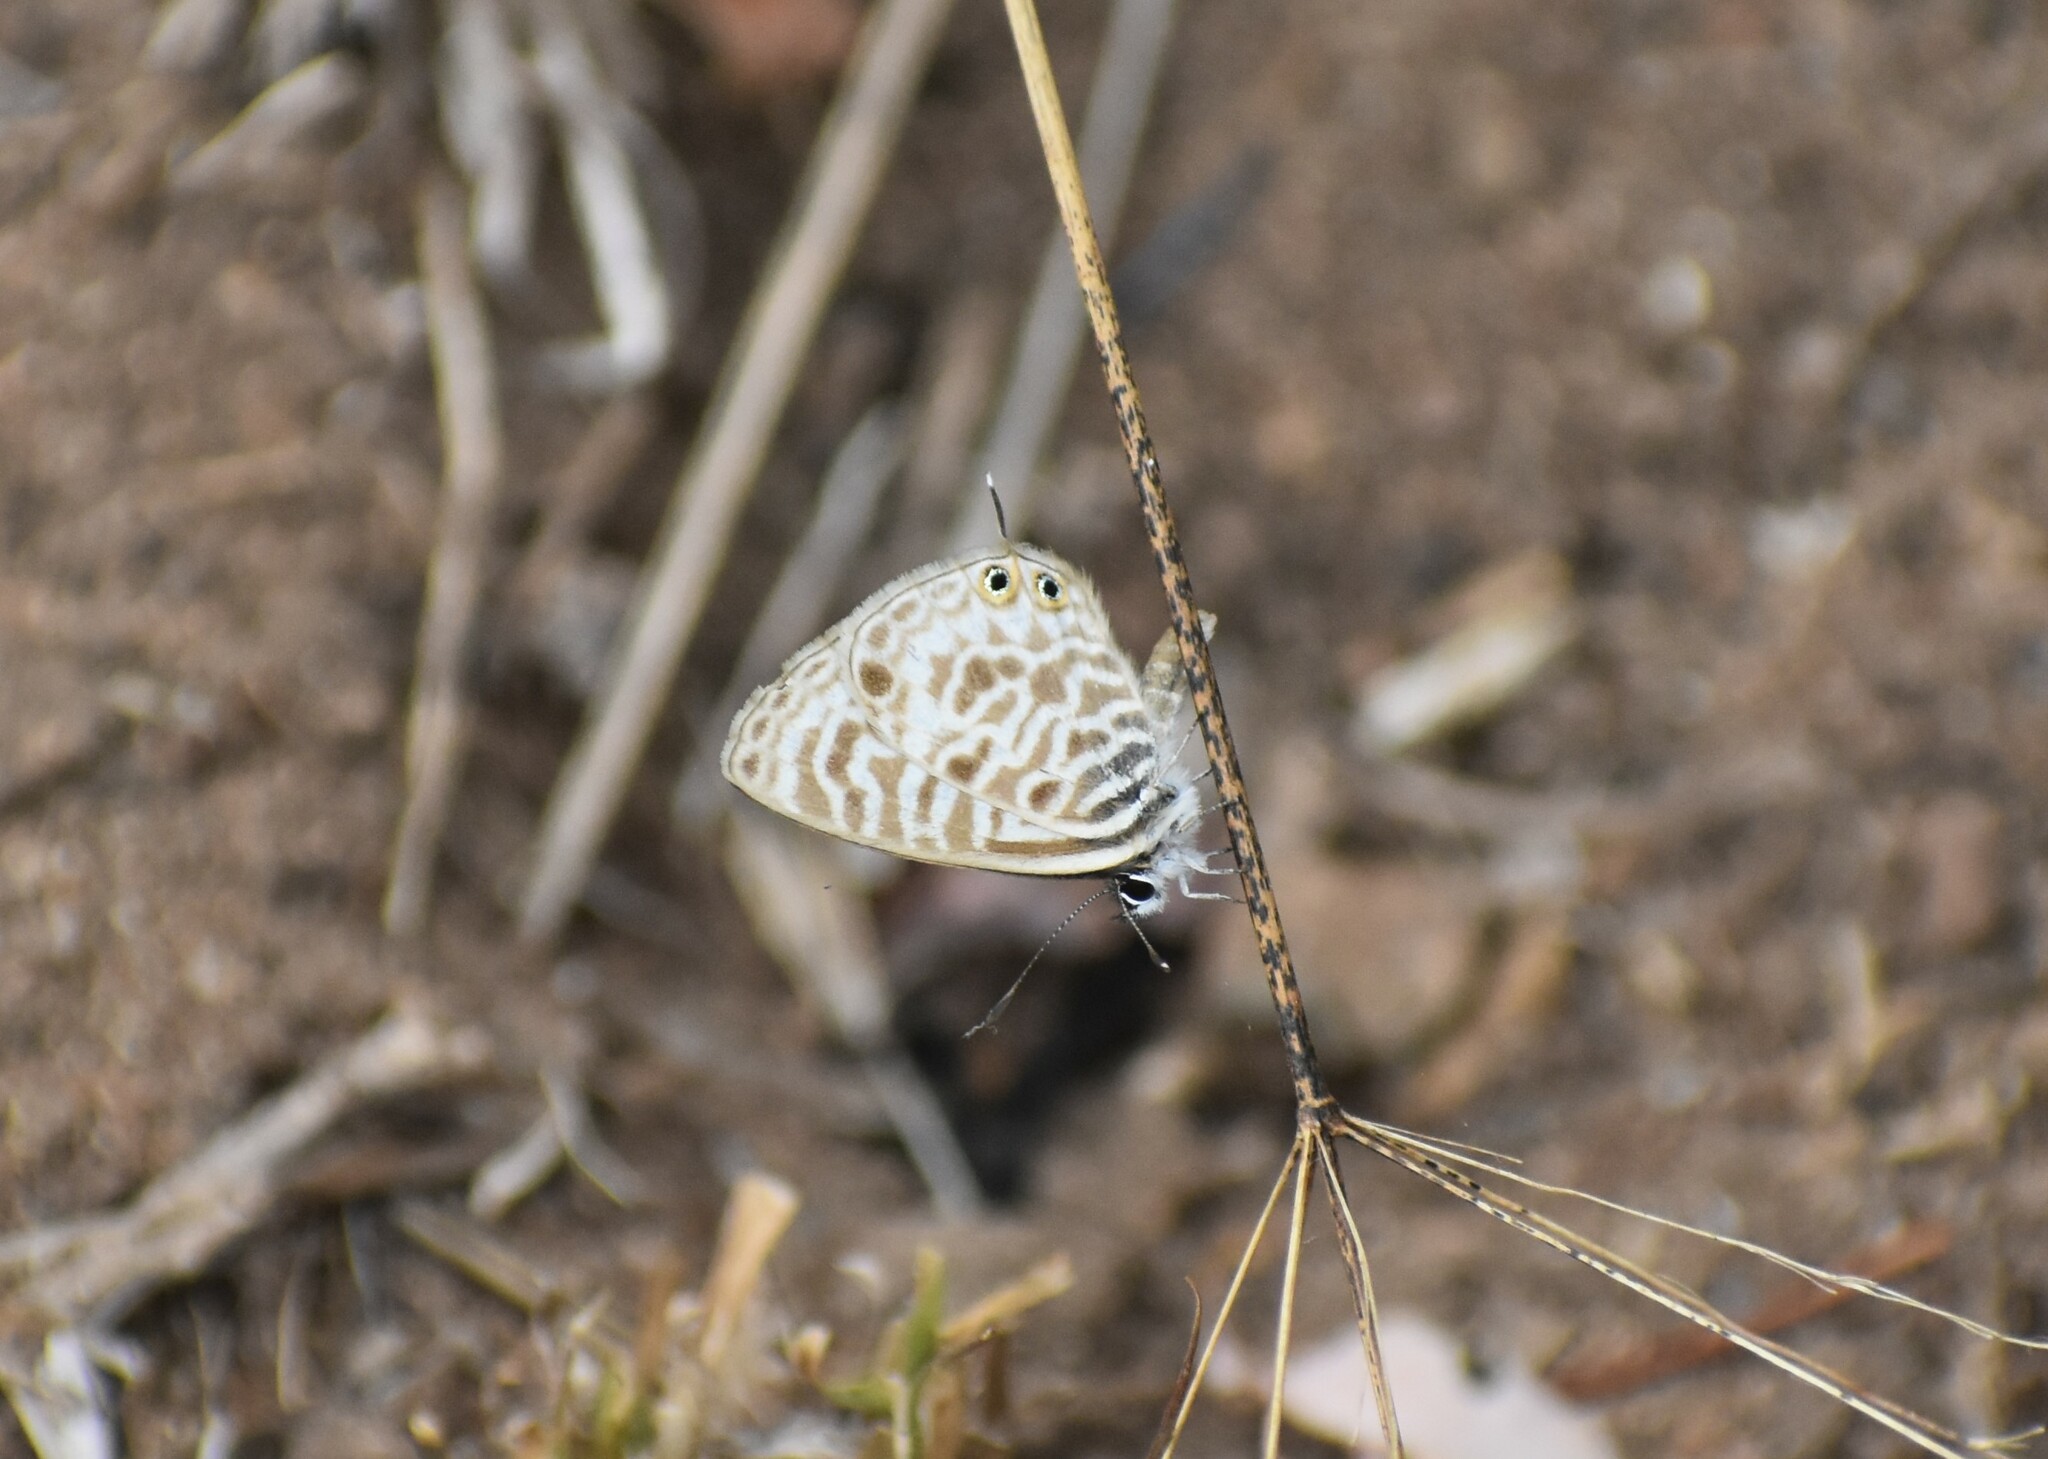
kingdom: Animalia
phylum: Arthropoda
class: Insecta
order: Lepidoptera
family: Lycaenidae
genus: Leptotes
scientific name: Leptotes
